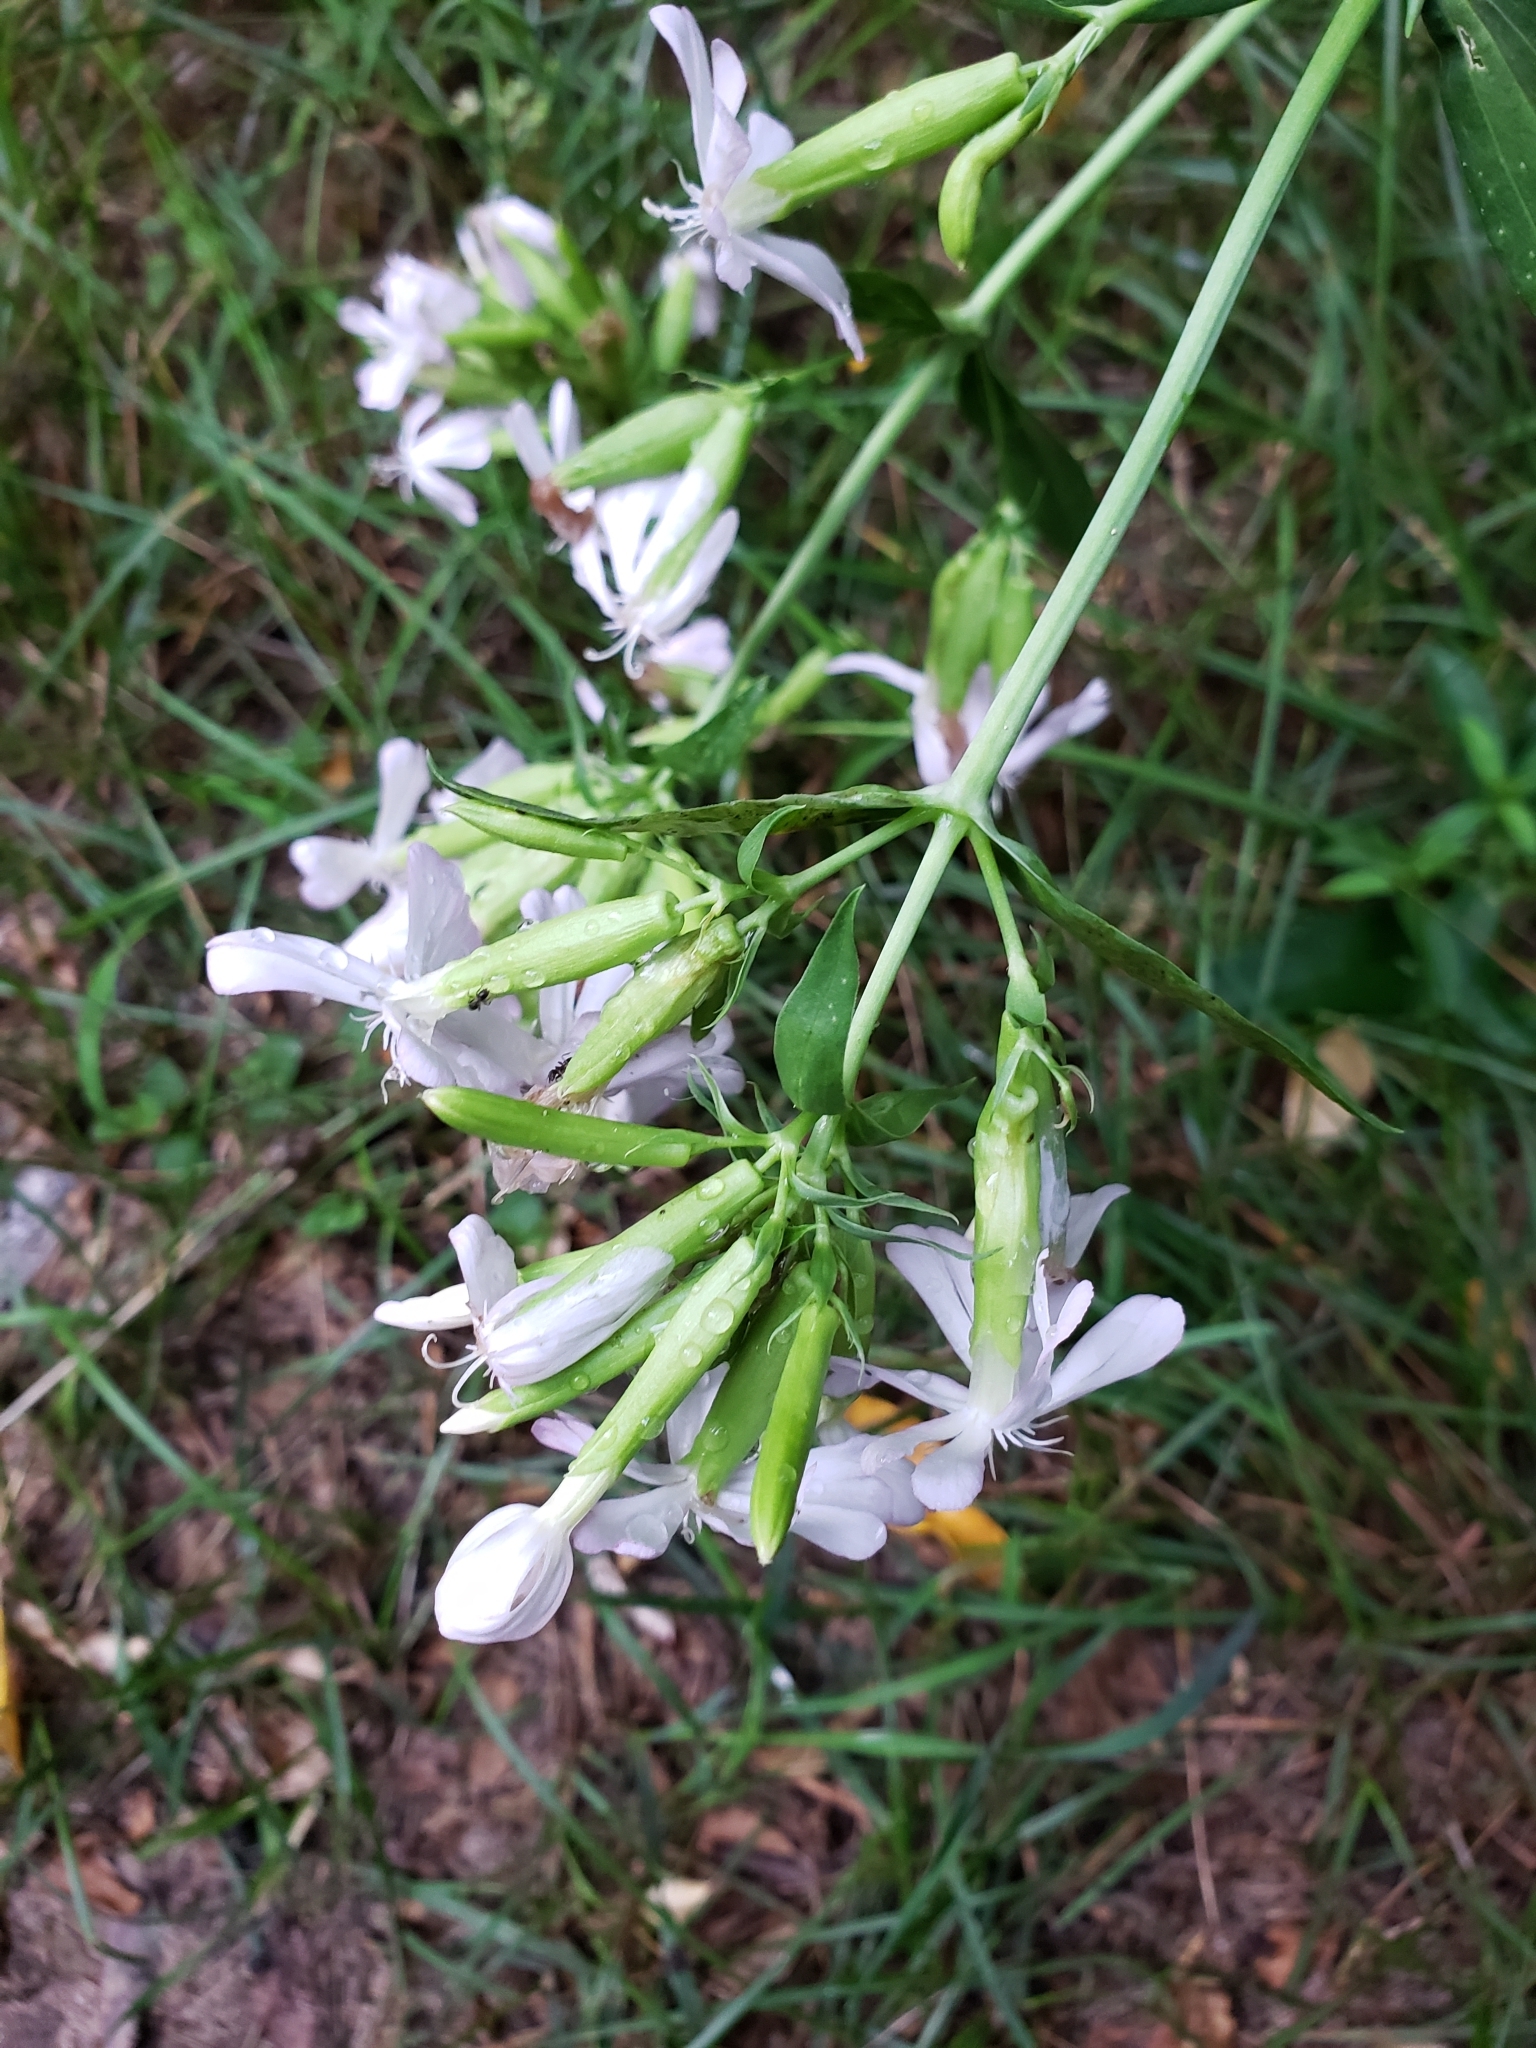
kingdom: Plantae
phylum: Tracheophyta
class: Magnoliopsida
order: Caryophyllales
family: Caryophyllaceae
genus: Saponaria
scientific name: Saponaria officinalis
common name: Soapwort
